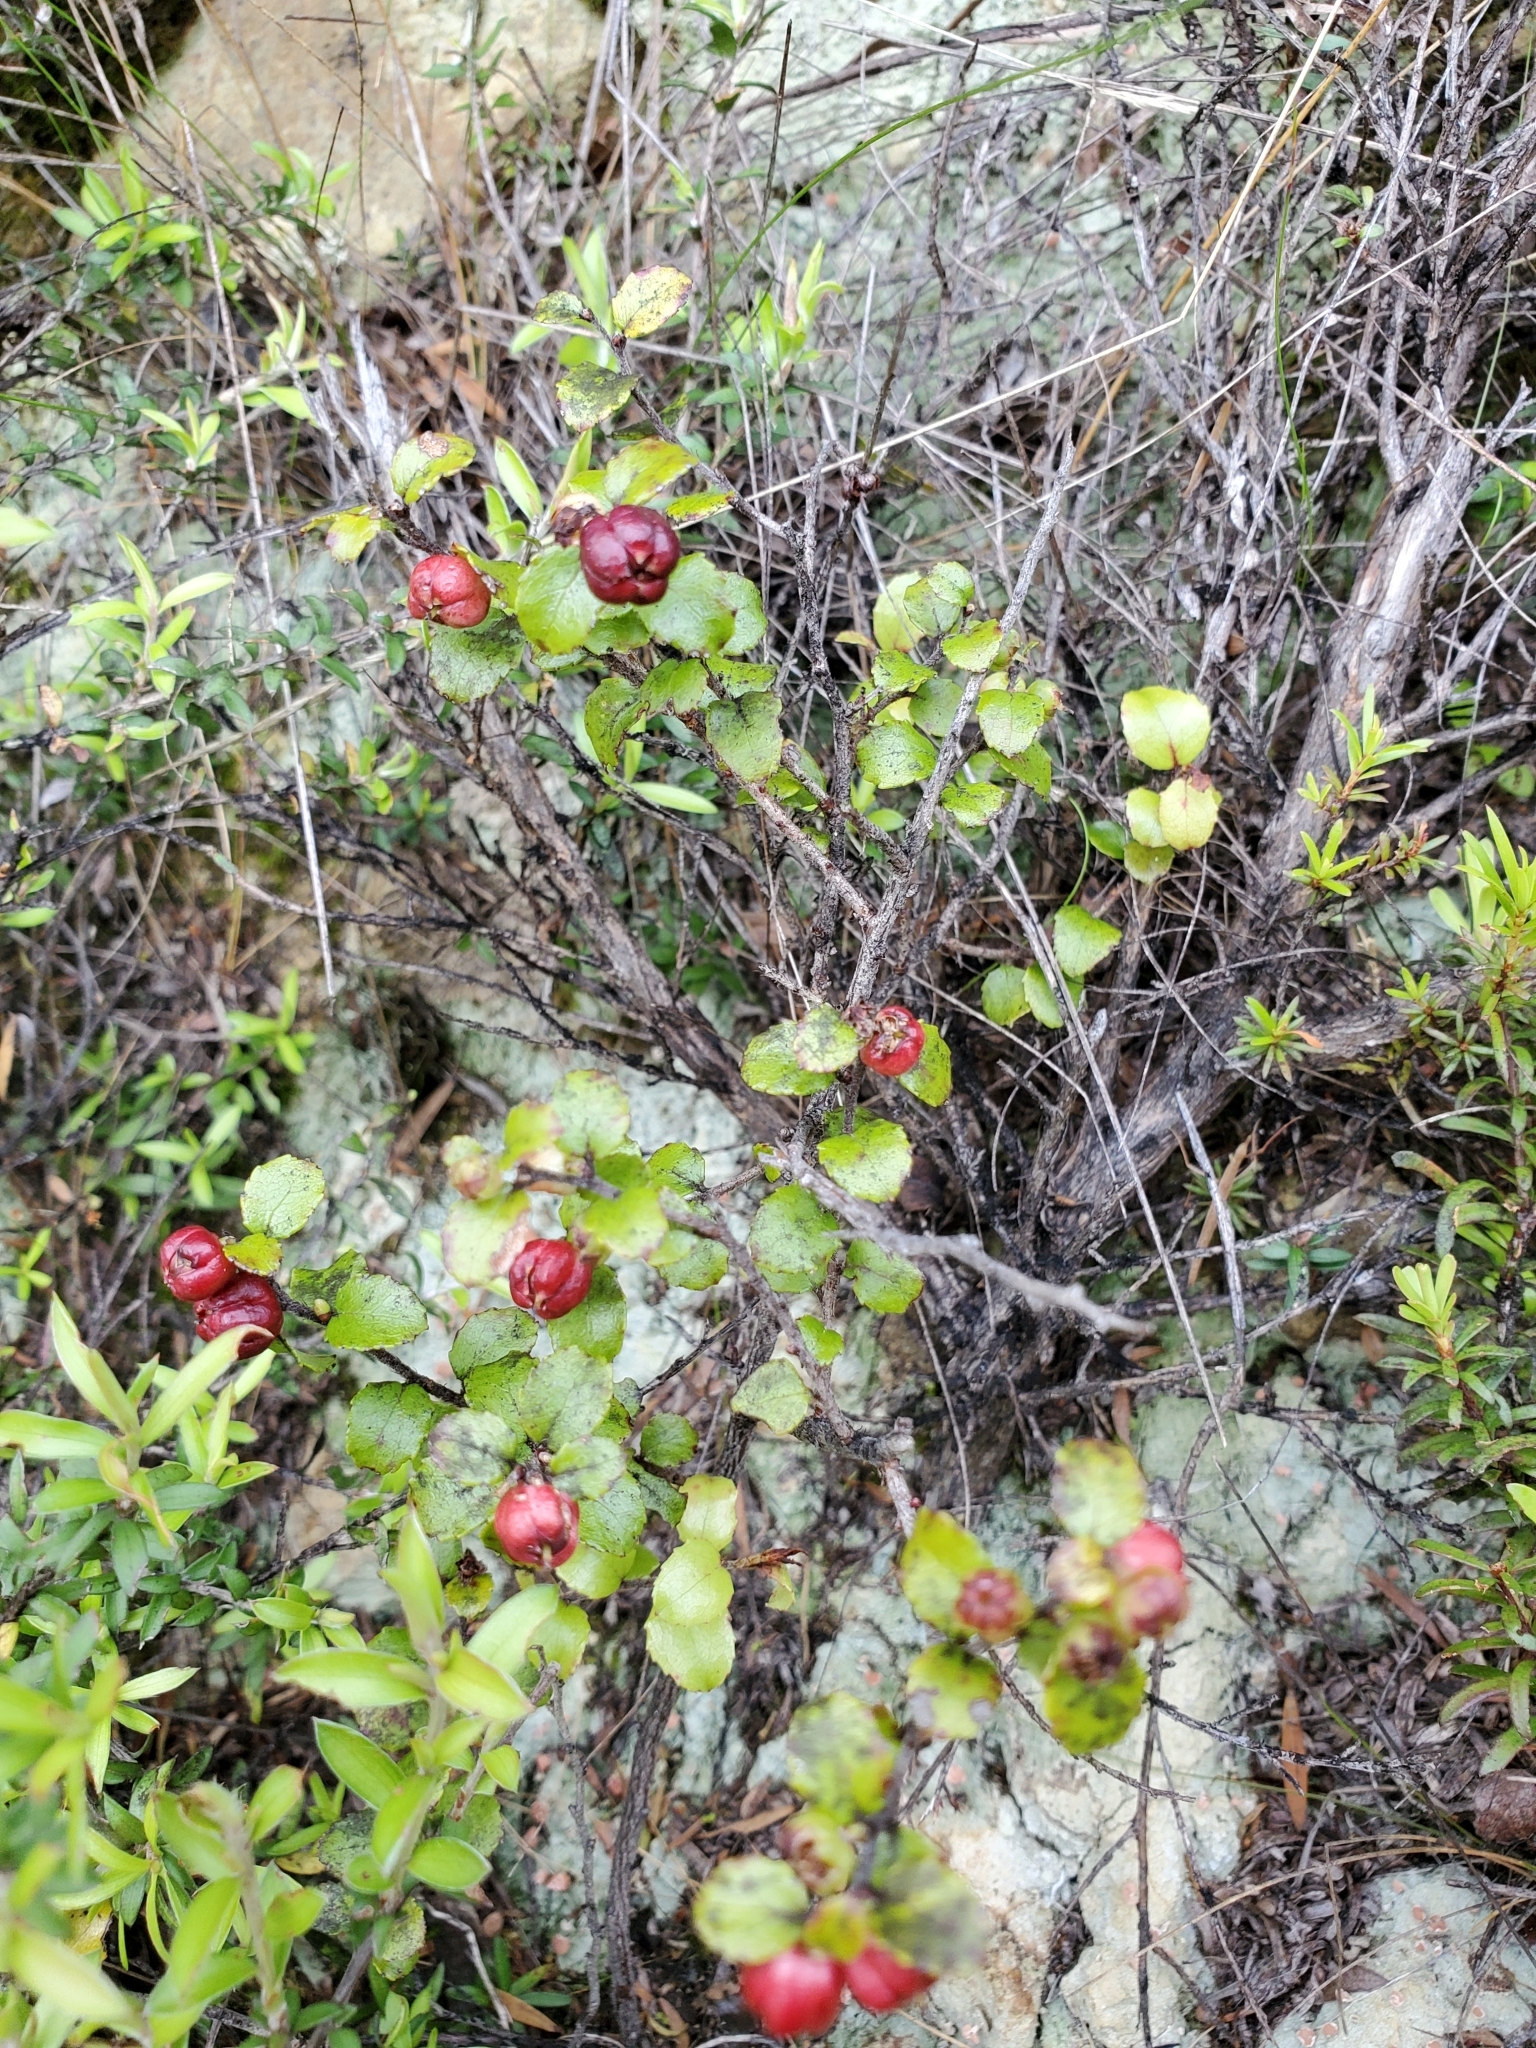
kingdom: Plantae
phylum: Tracheophyta
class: Magnoliopsida
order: Ericales
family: Ericaceae
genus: Gaultheria
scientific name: Gaultheria antipoda
